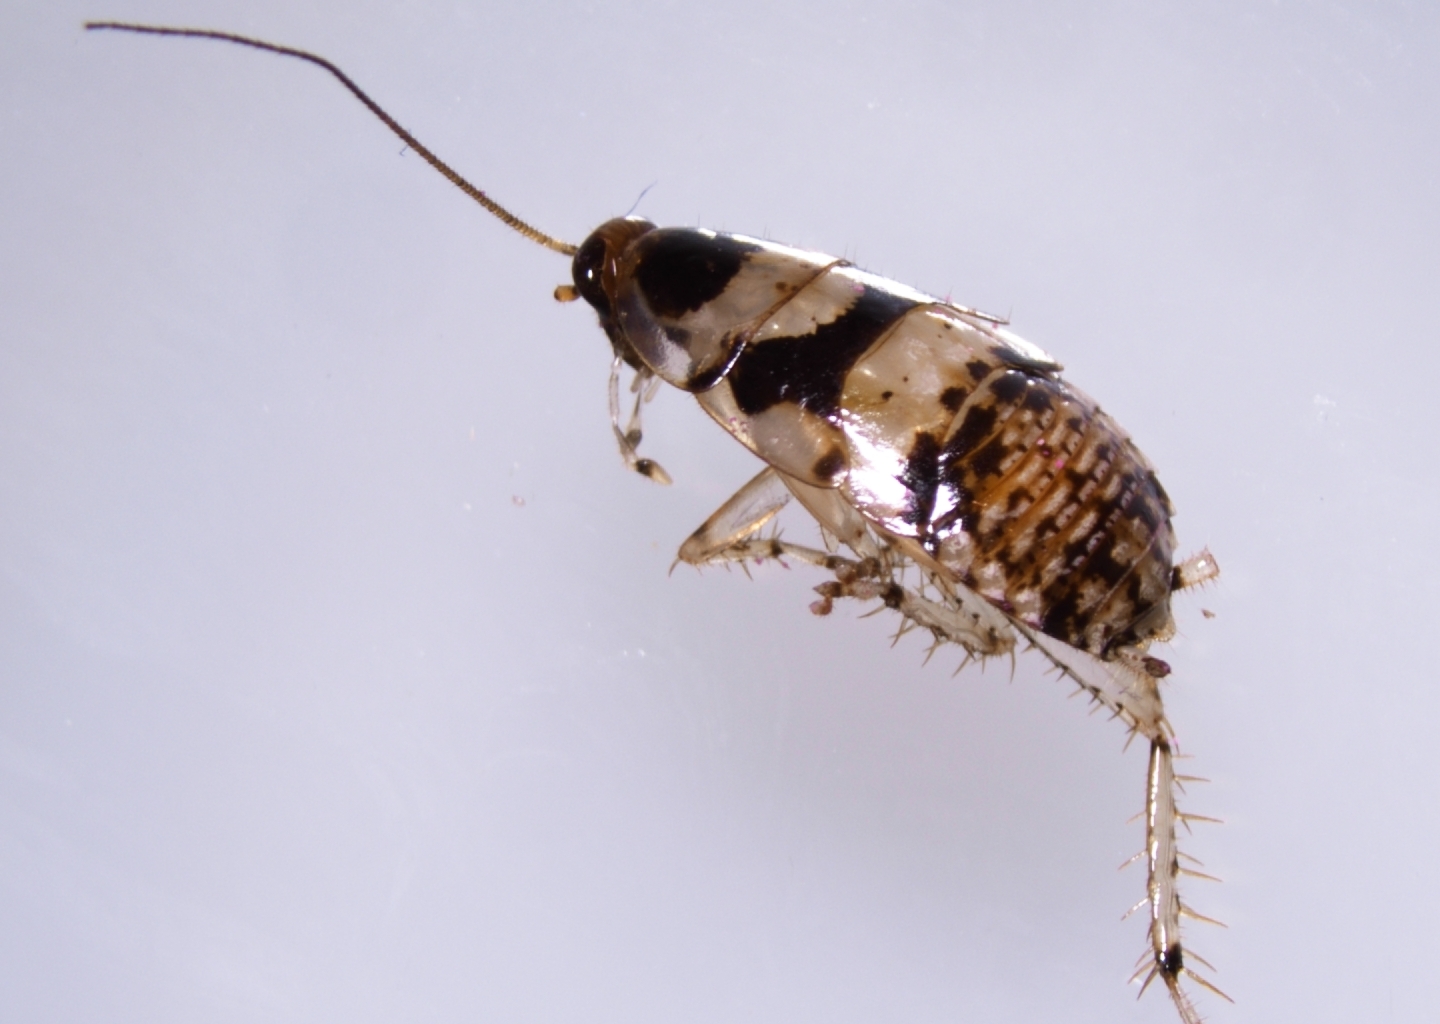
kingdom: Animalia
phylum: Arthropoda
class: Insecta
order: Blattodea
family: Ectobiidae
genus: Balta
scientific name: Balta notulata
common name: Cockroach
